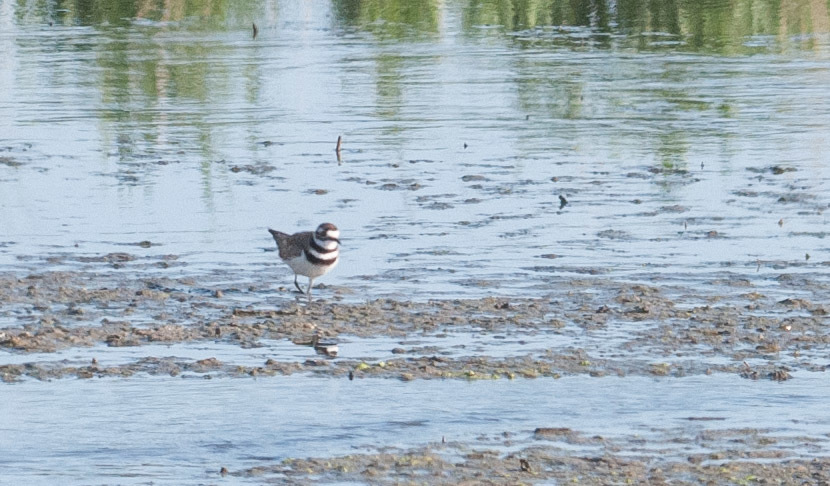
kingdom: Animalia
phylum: Chordata
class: Aves
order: Charadriiformes
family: Charadriidae
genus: Charadrius
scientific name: Charadrius vociferus
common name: Killdeer
